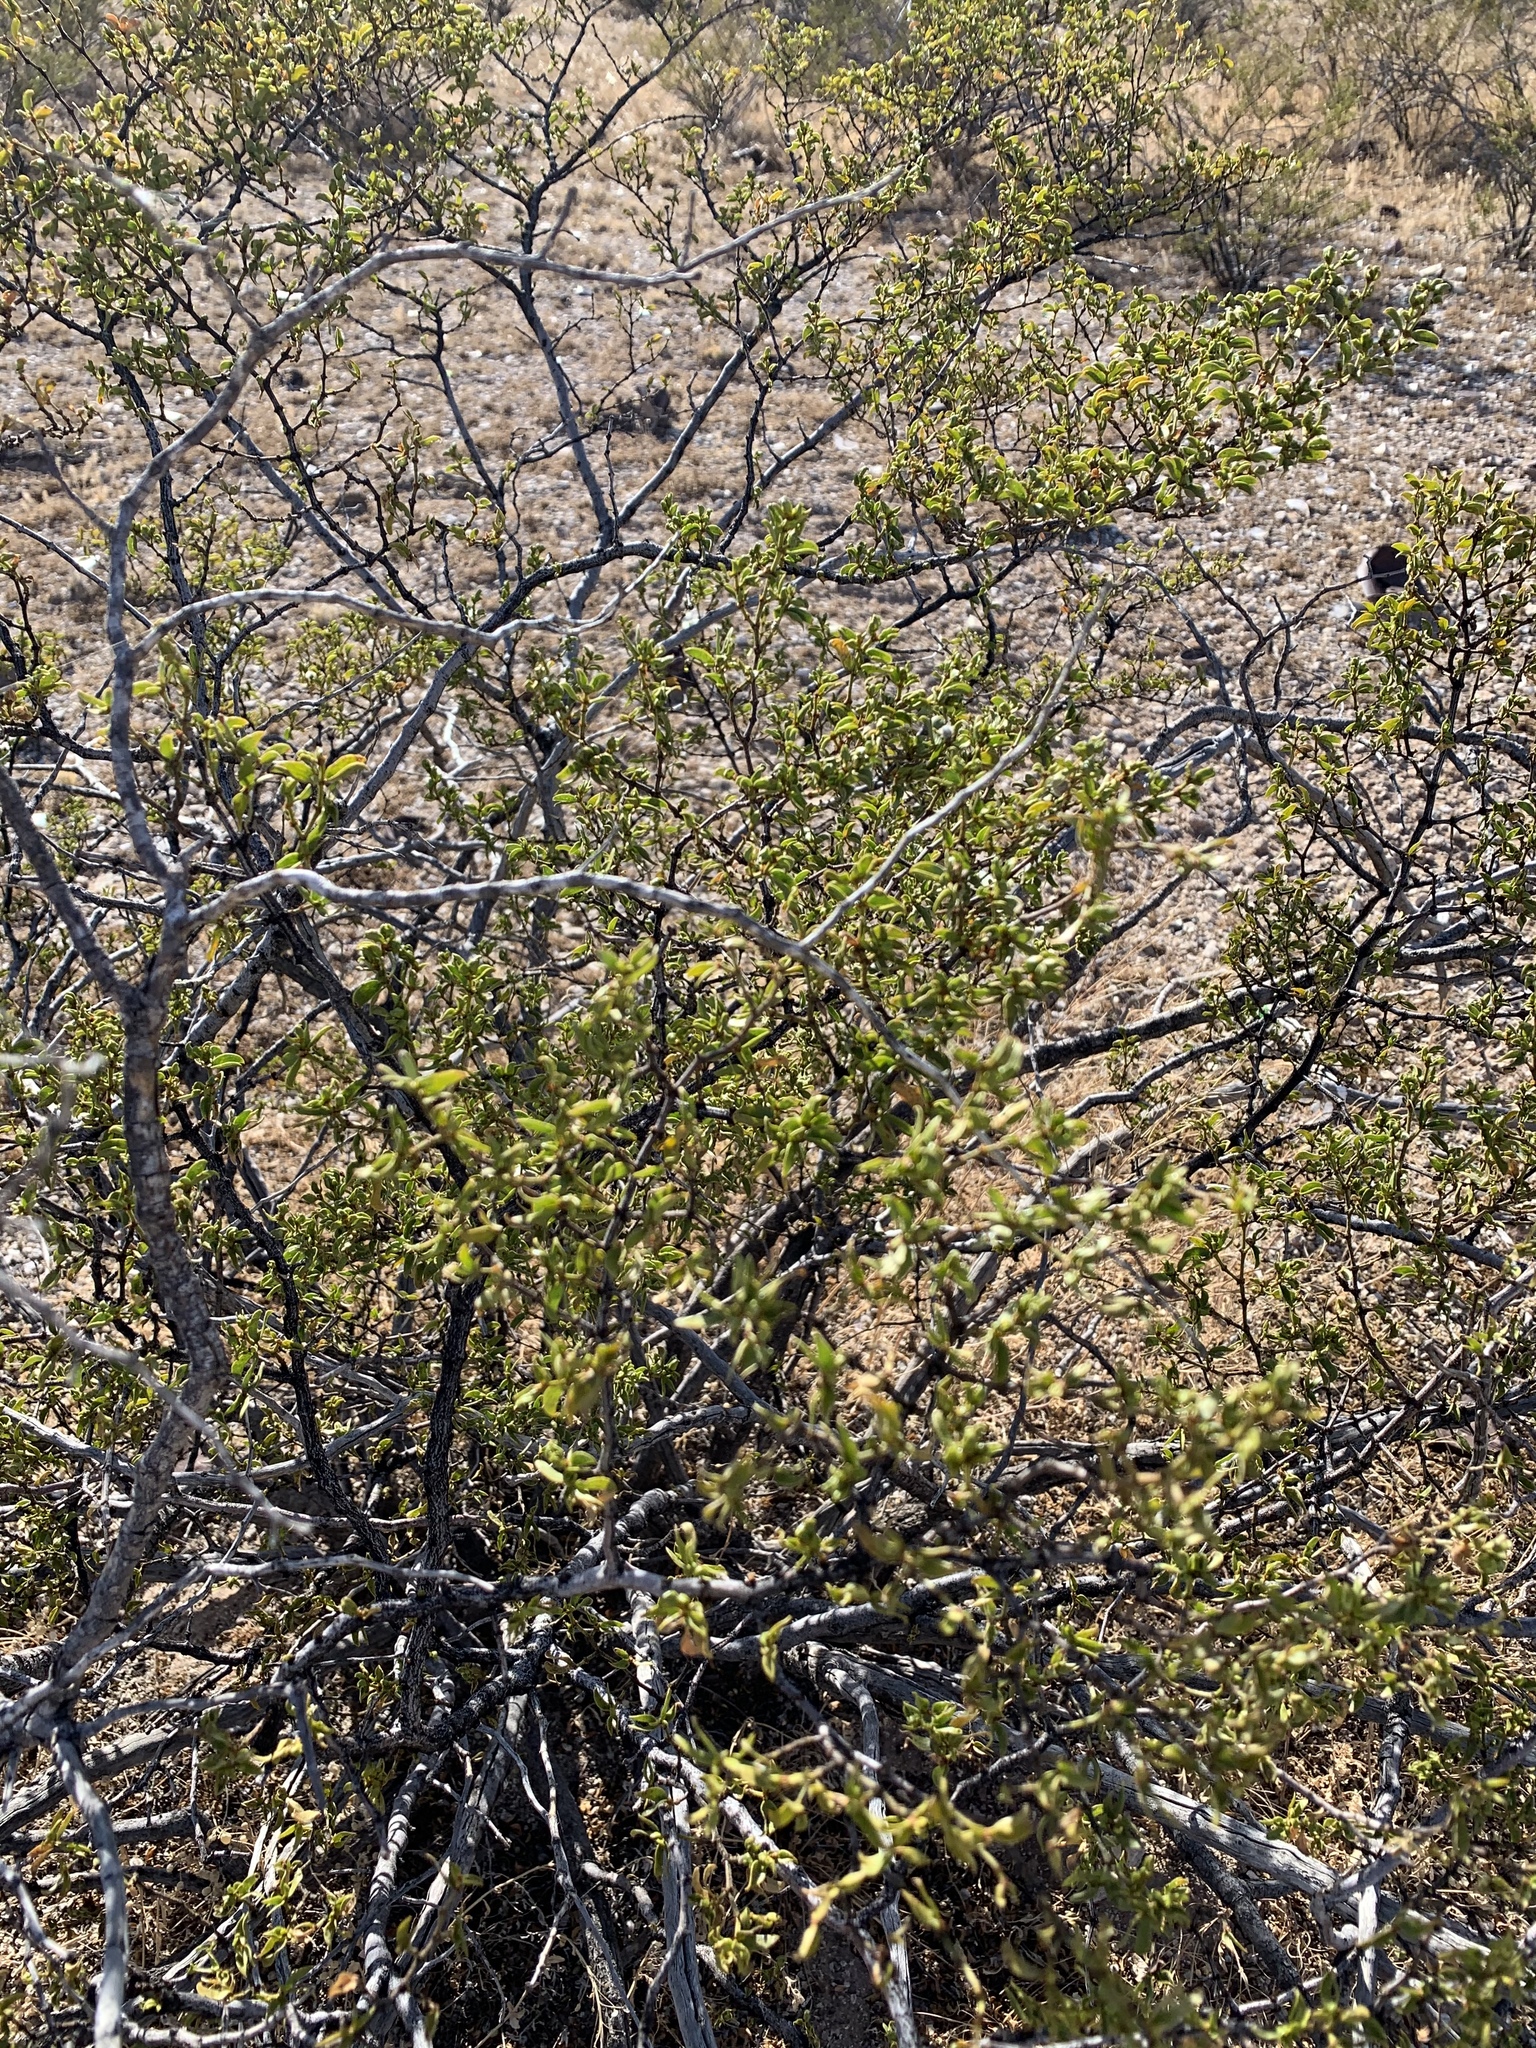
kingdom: Plantae
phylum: Tracheophyta
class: Magnoliopsida
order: Asterales
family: Asteraceae
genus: Flourensia
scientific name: Flourensia cernua
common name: Varnishbush
